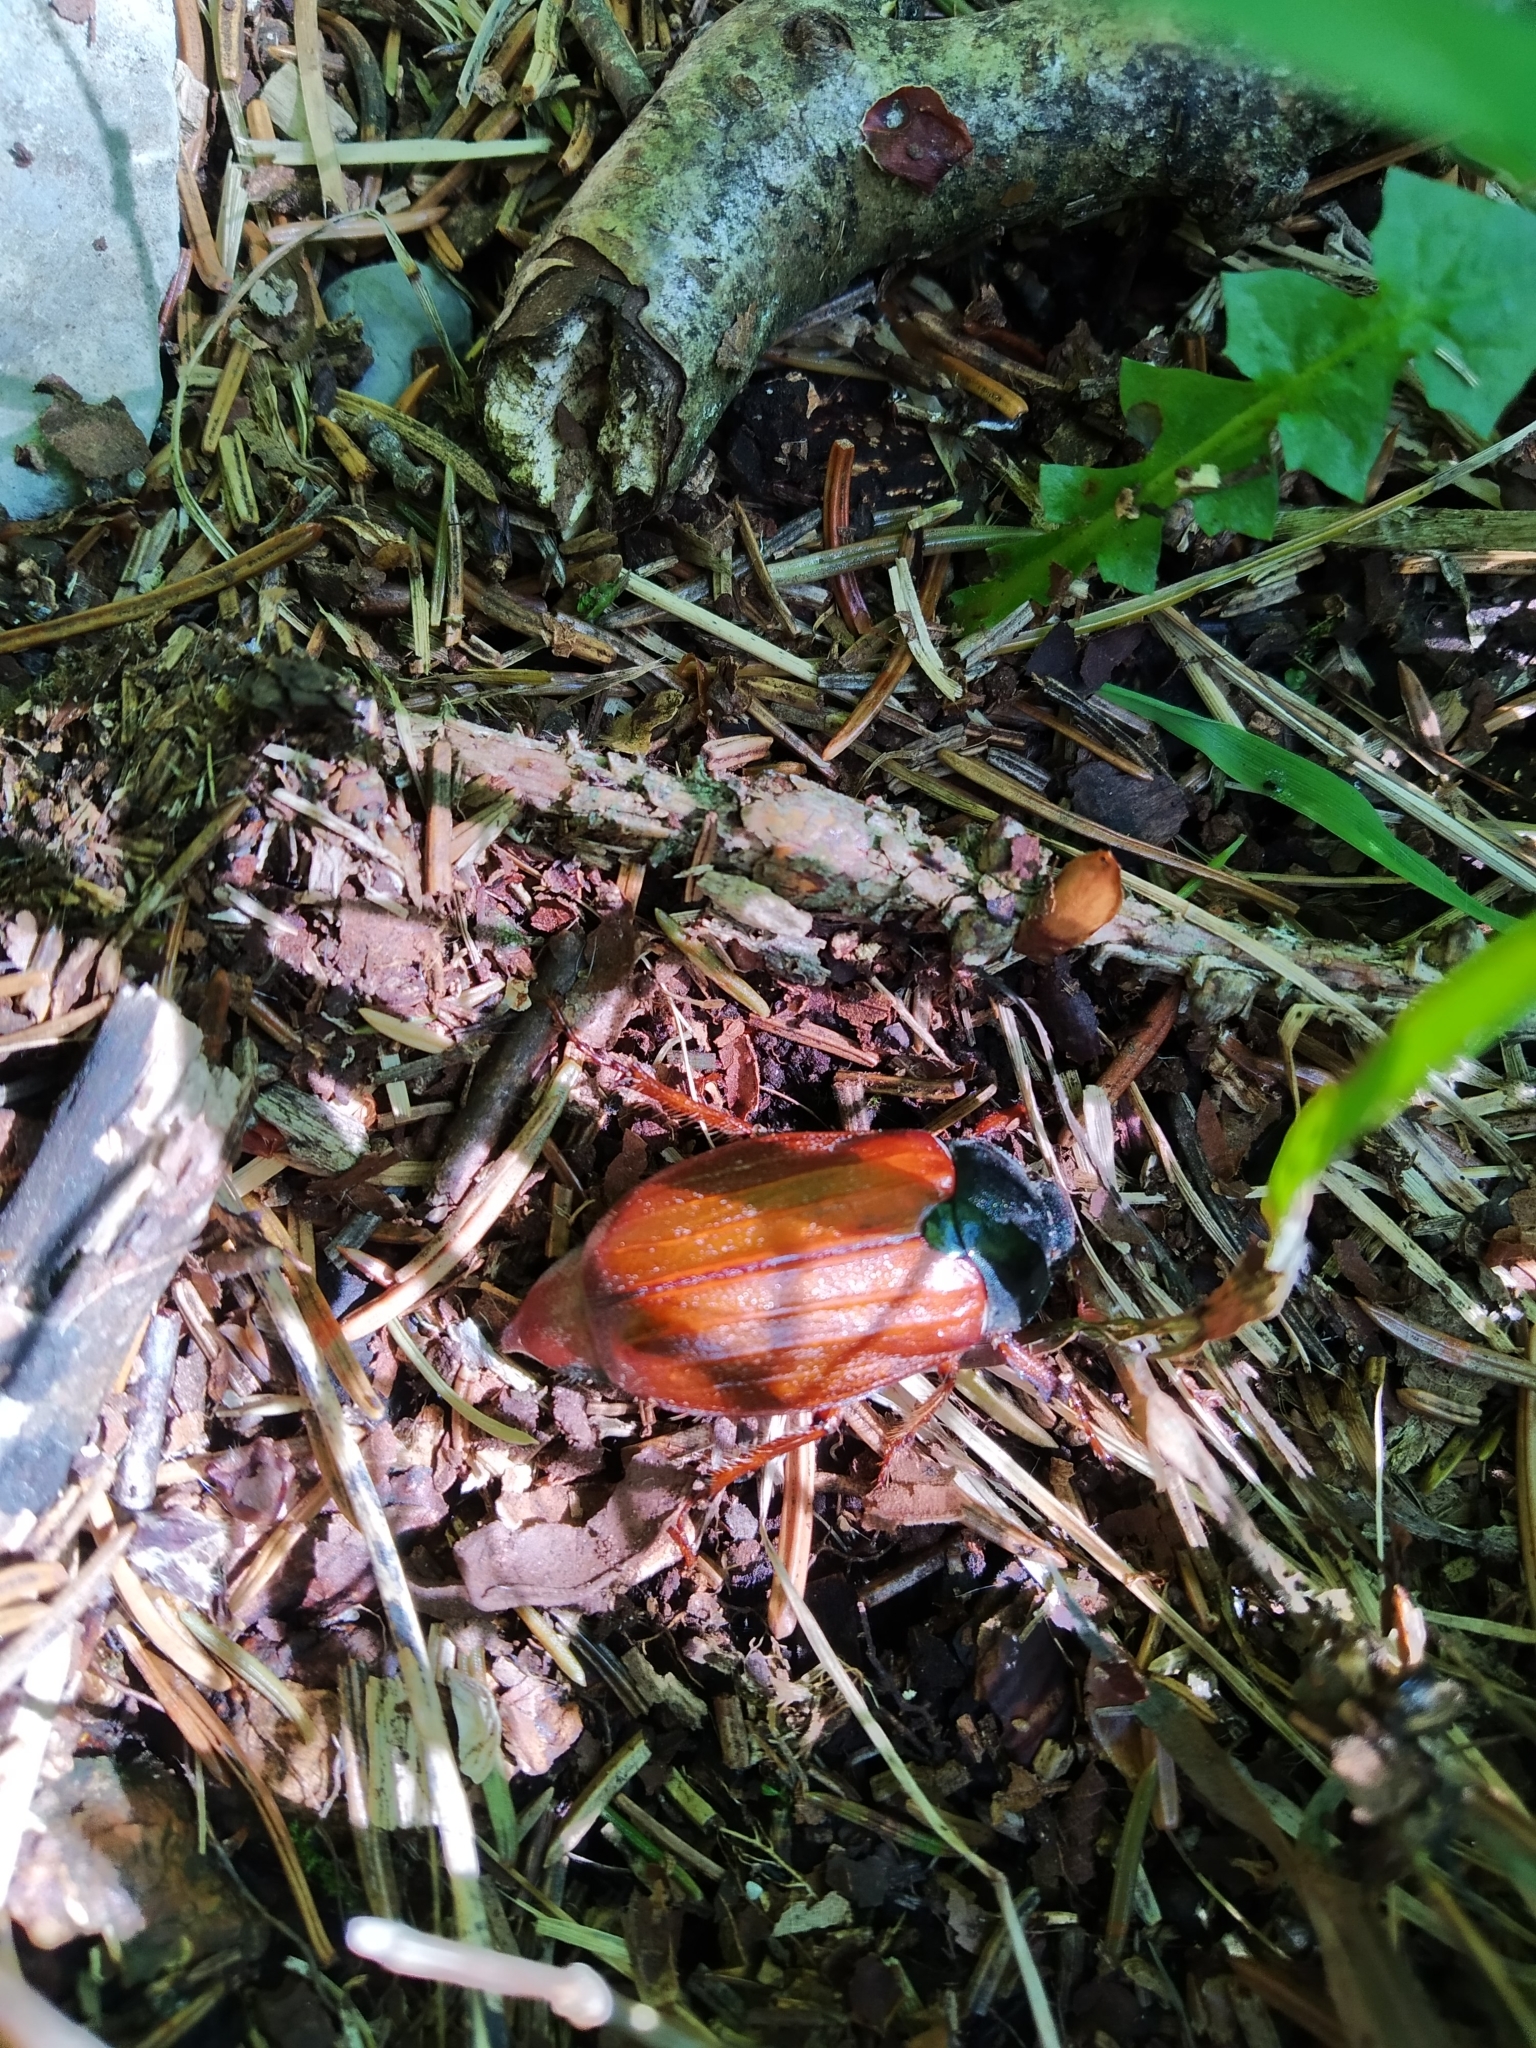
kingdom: Animalia
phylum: Arthropoda
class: Insecta
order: Coleoptera
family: Scarabaeidae
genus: Melolontha
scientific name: Melolontha pectoralis
